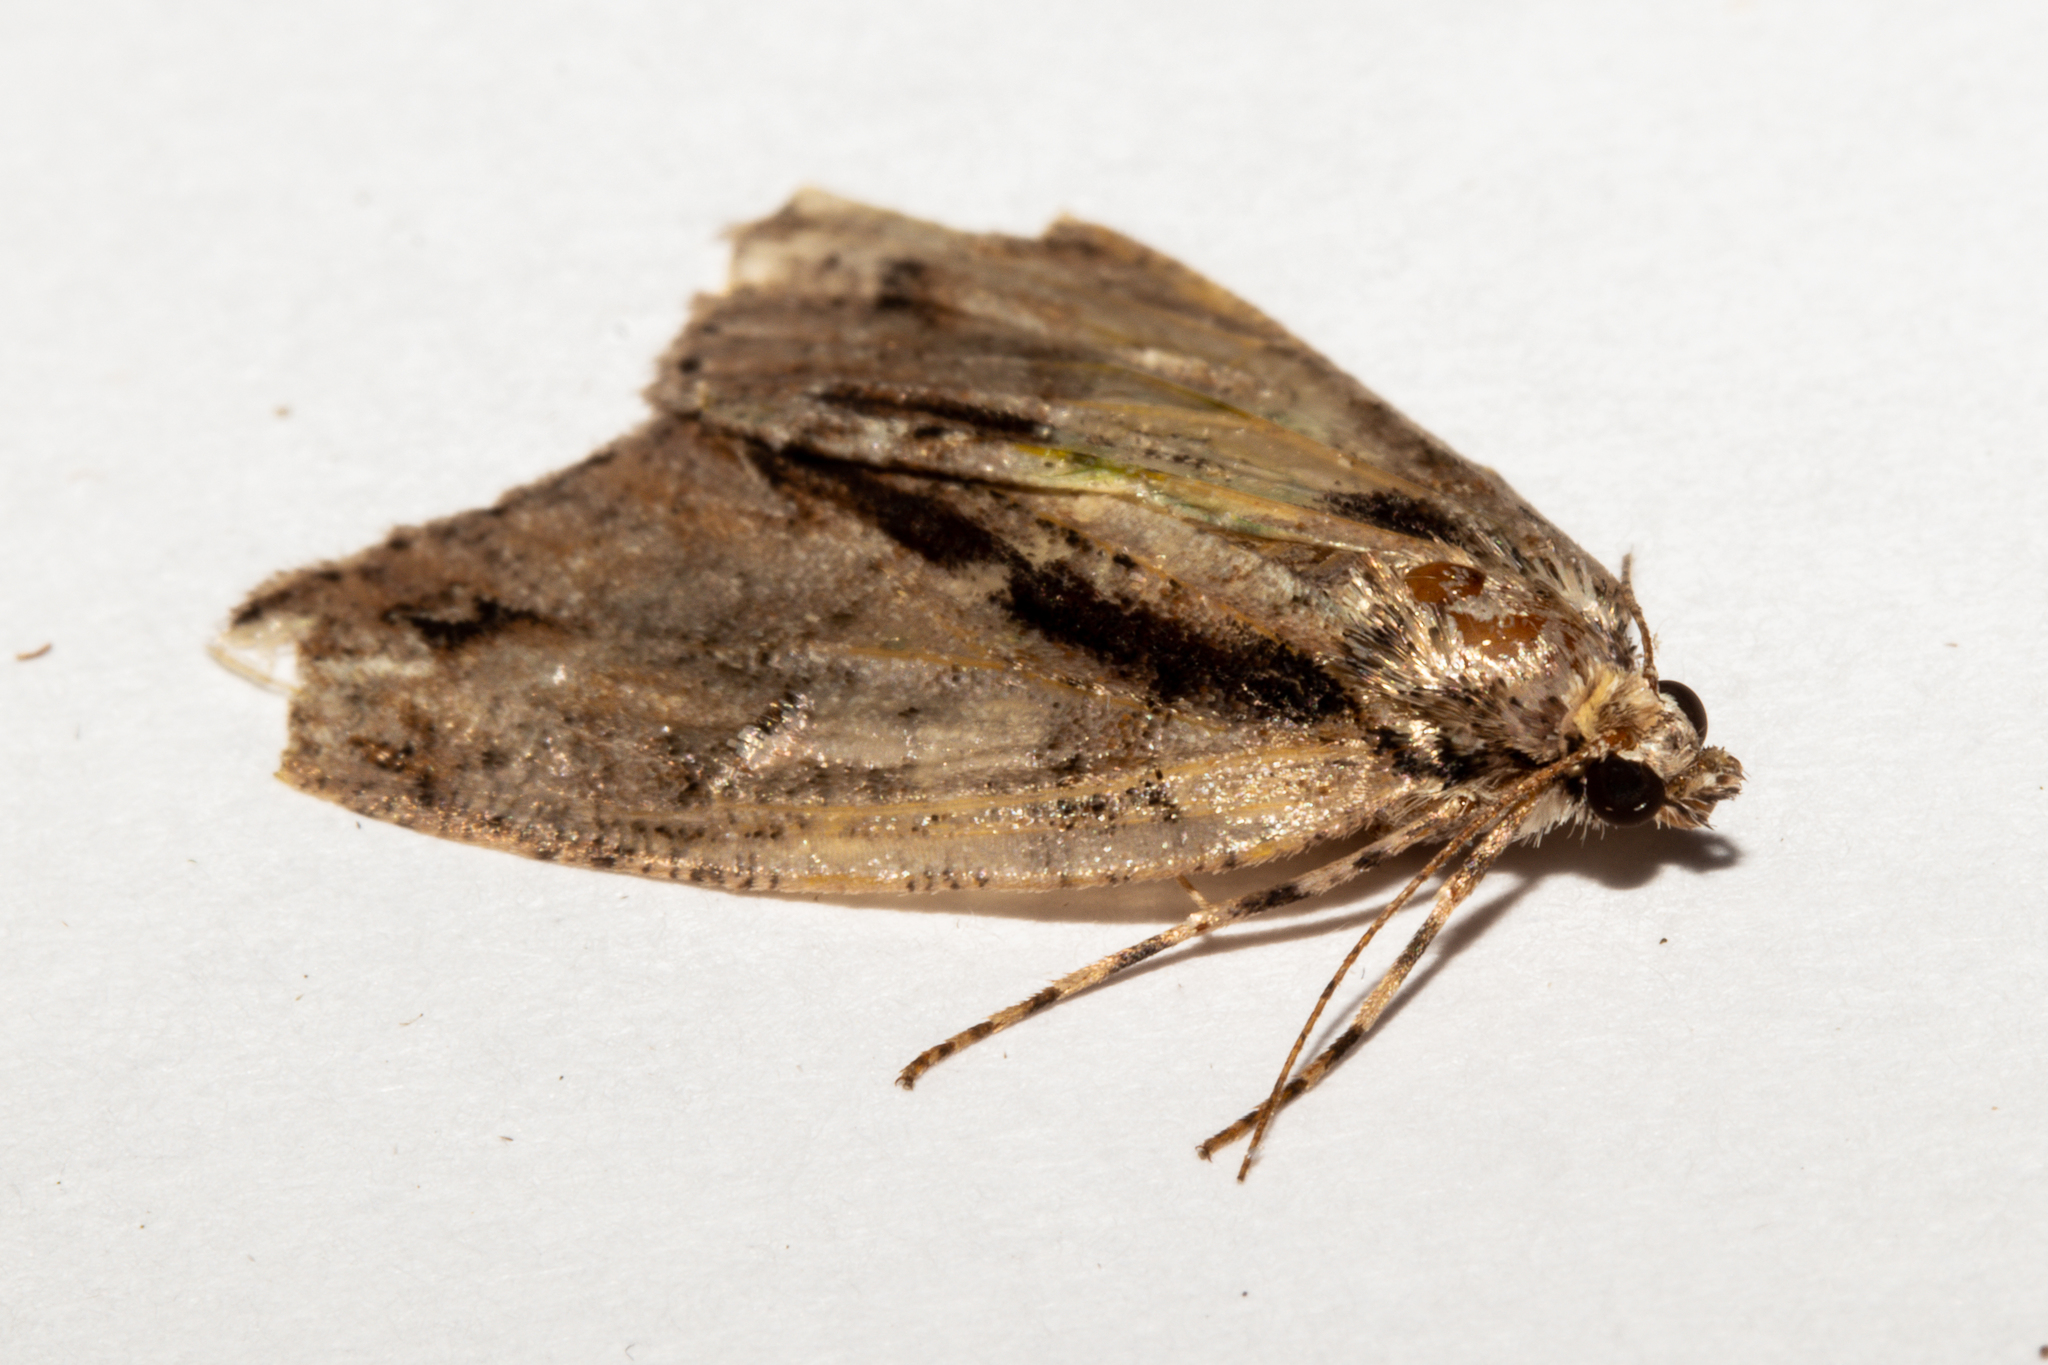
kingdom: Animalia
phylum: Arthropoda
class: Insecta
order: Lepidoptera
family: Geometridae
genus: Pseudocoremia
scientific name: Pseudocoremia suavis
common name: Common forest looper
